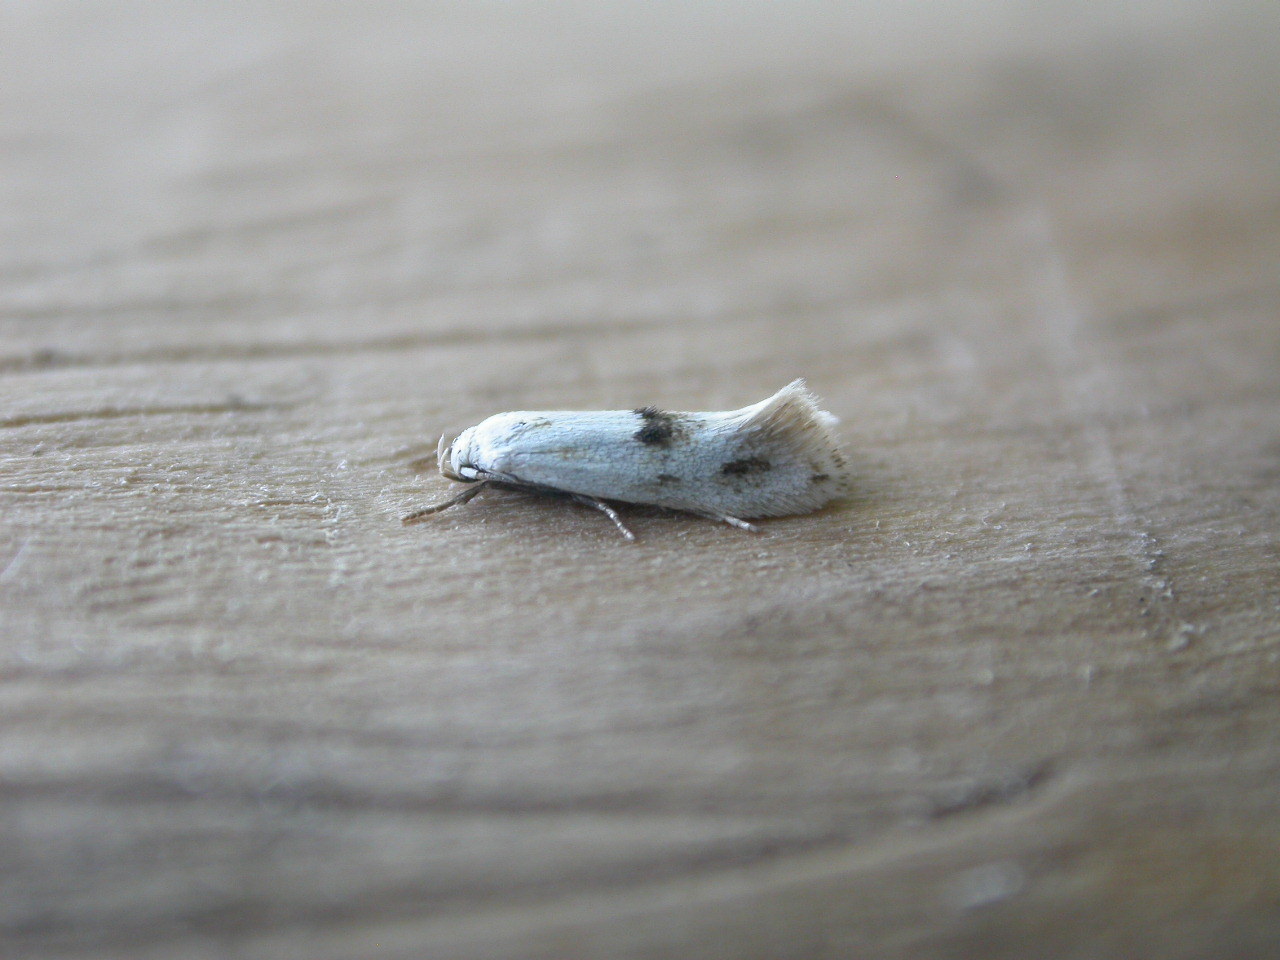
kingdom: Animalia
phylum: Arthropoda
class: Insecta
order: Lepidoptera
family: Elachistidae
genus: Elachista
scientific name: Elachista maculicerusella
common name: Triple-spot dwarf
